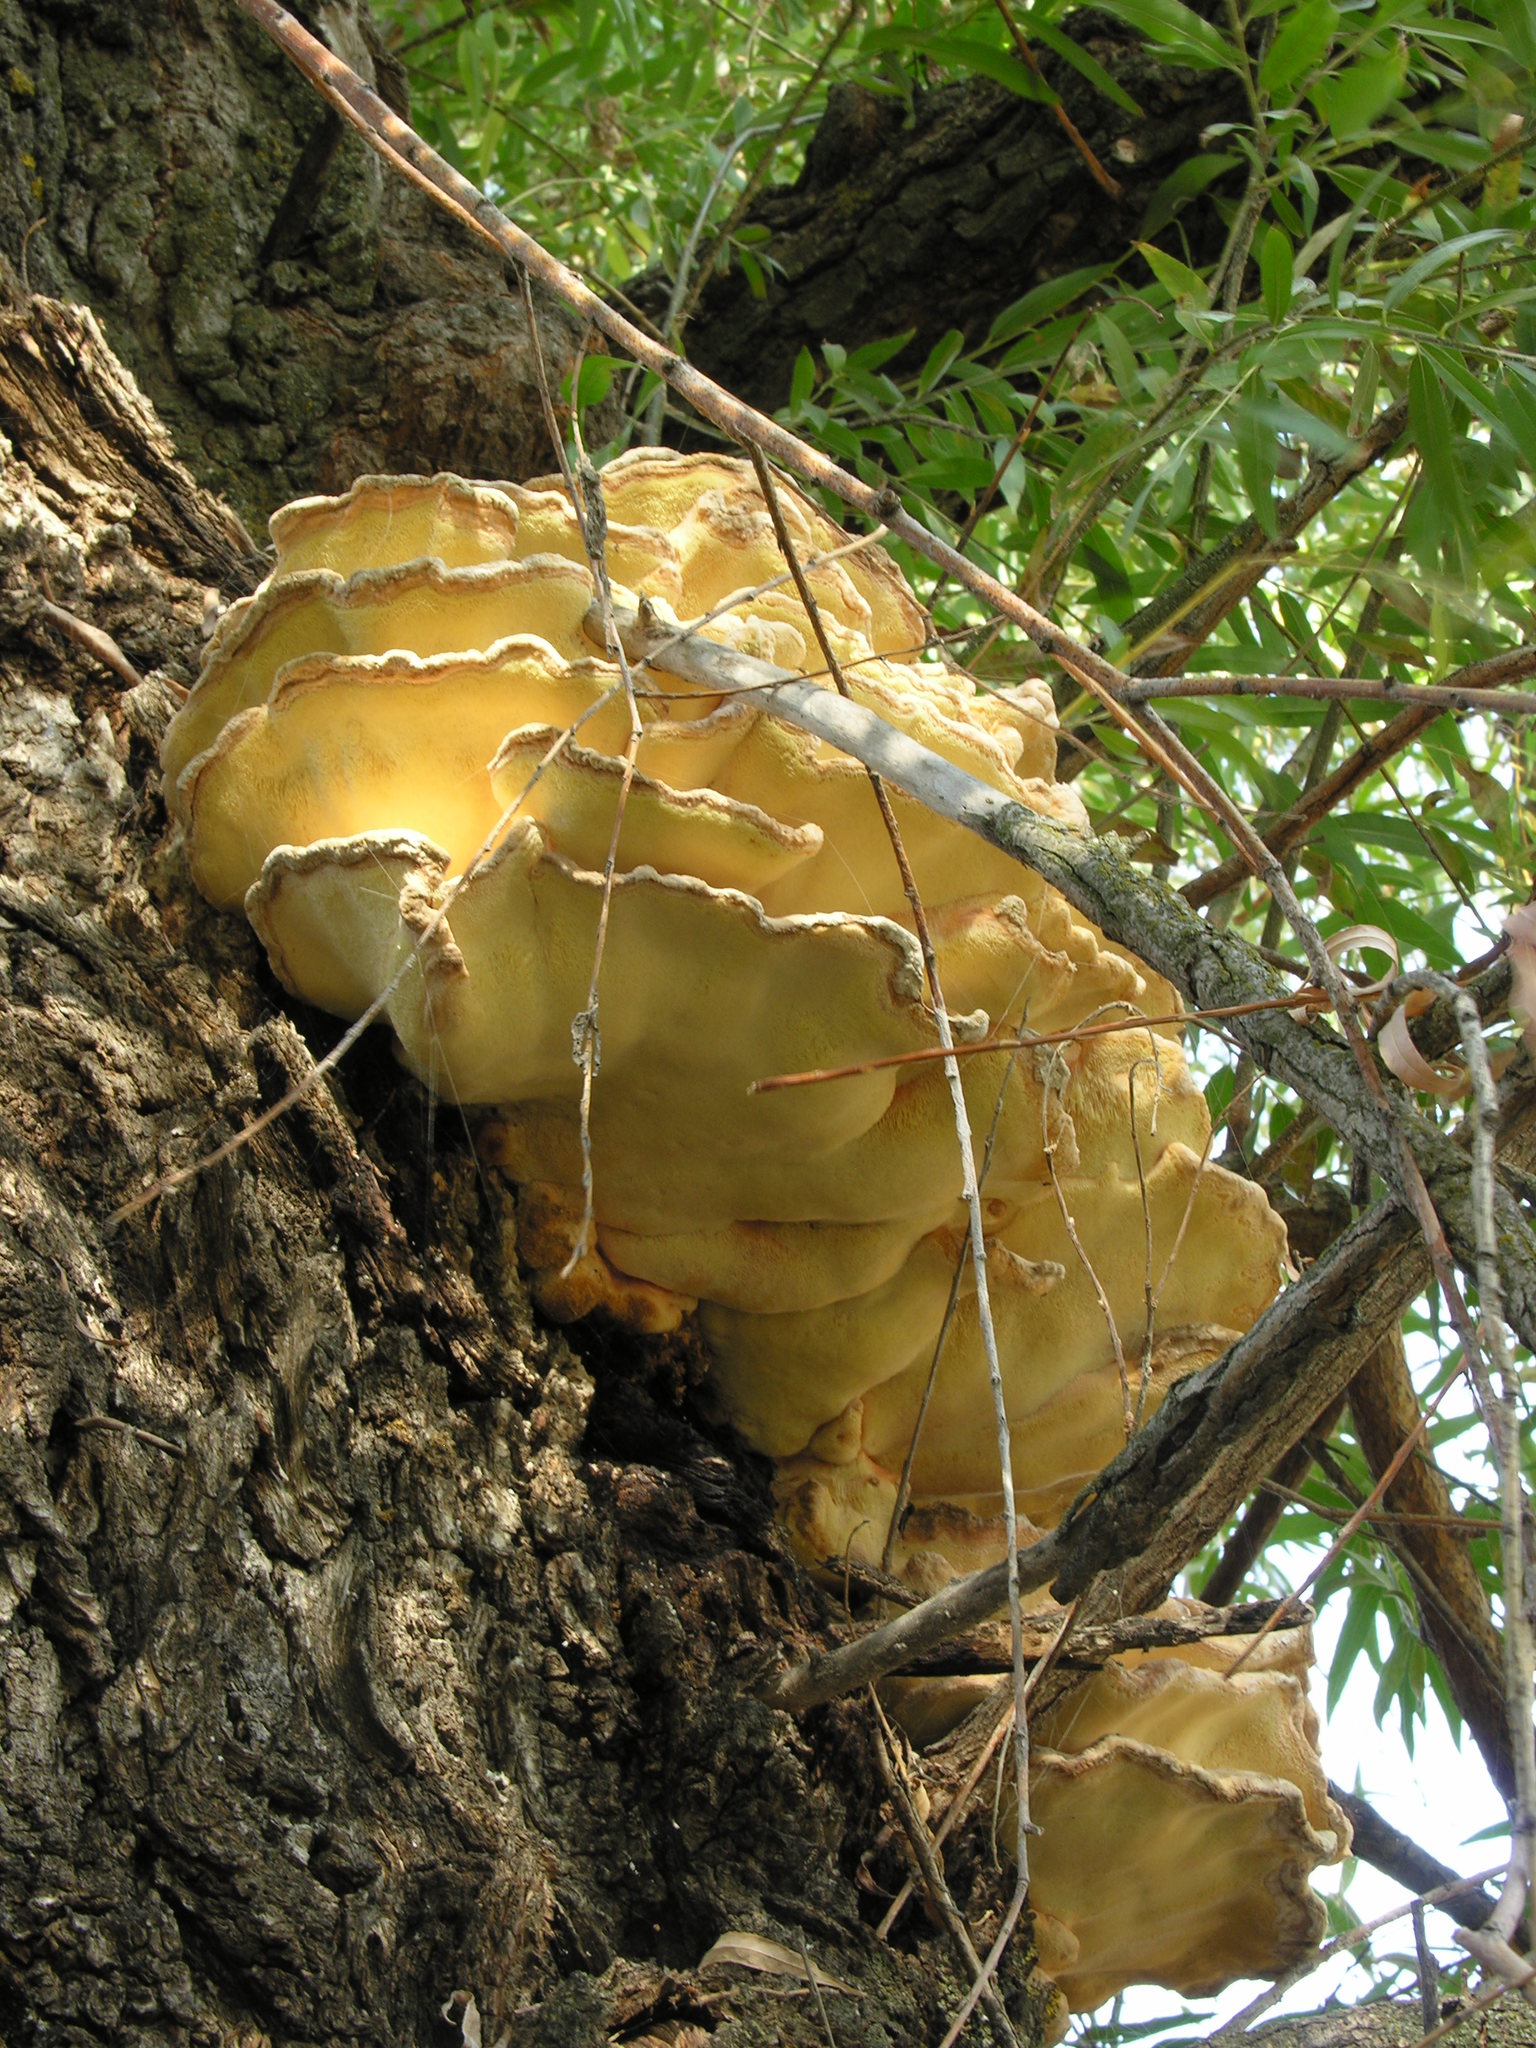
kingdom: Fungi
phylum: Basidiomycota
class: Agaricomycetes
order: Polyporales
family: Laetiporaceae
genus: Laetiporus
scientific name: Laetiporus sulphureus
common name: Chicken of the woods
